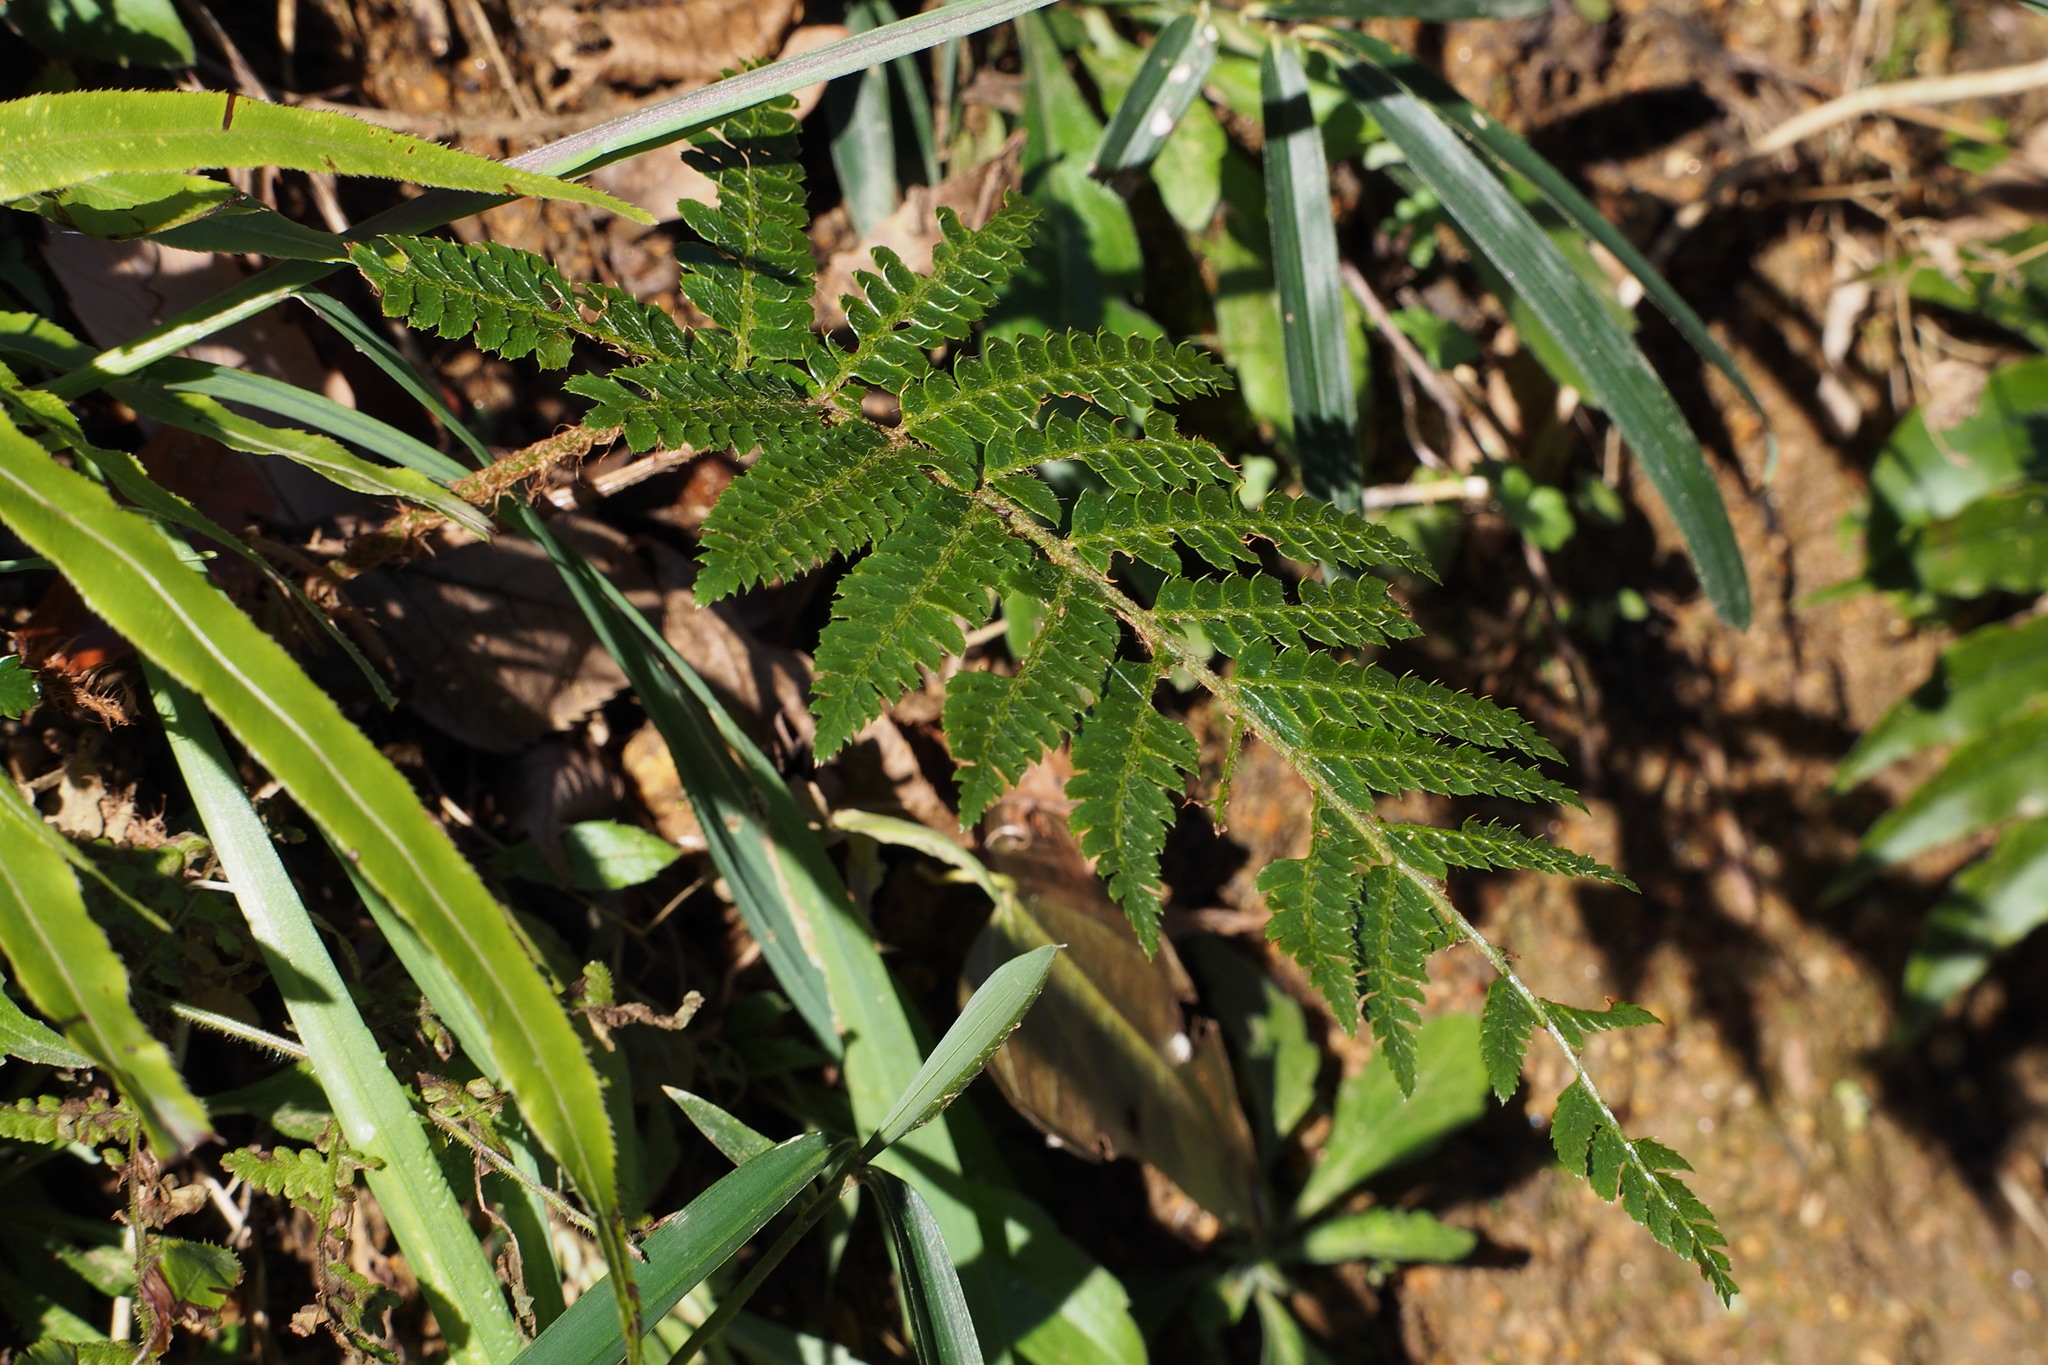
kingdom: Plantae
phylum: Tracheophyta
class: Polypodiopsida
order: Polypodiales
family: Dryopteridaceae
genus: Polystichum
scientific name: Polystichum luctuosum
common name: Korean rockfern
